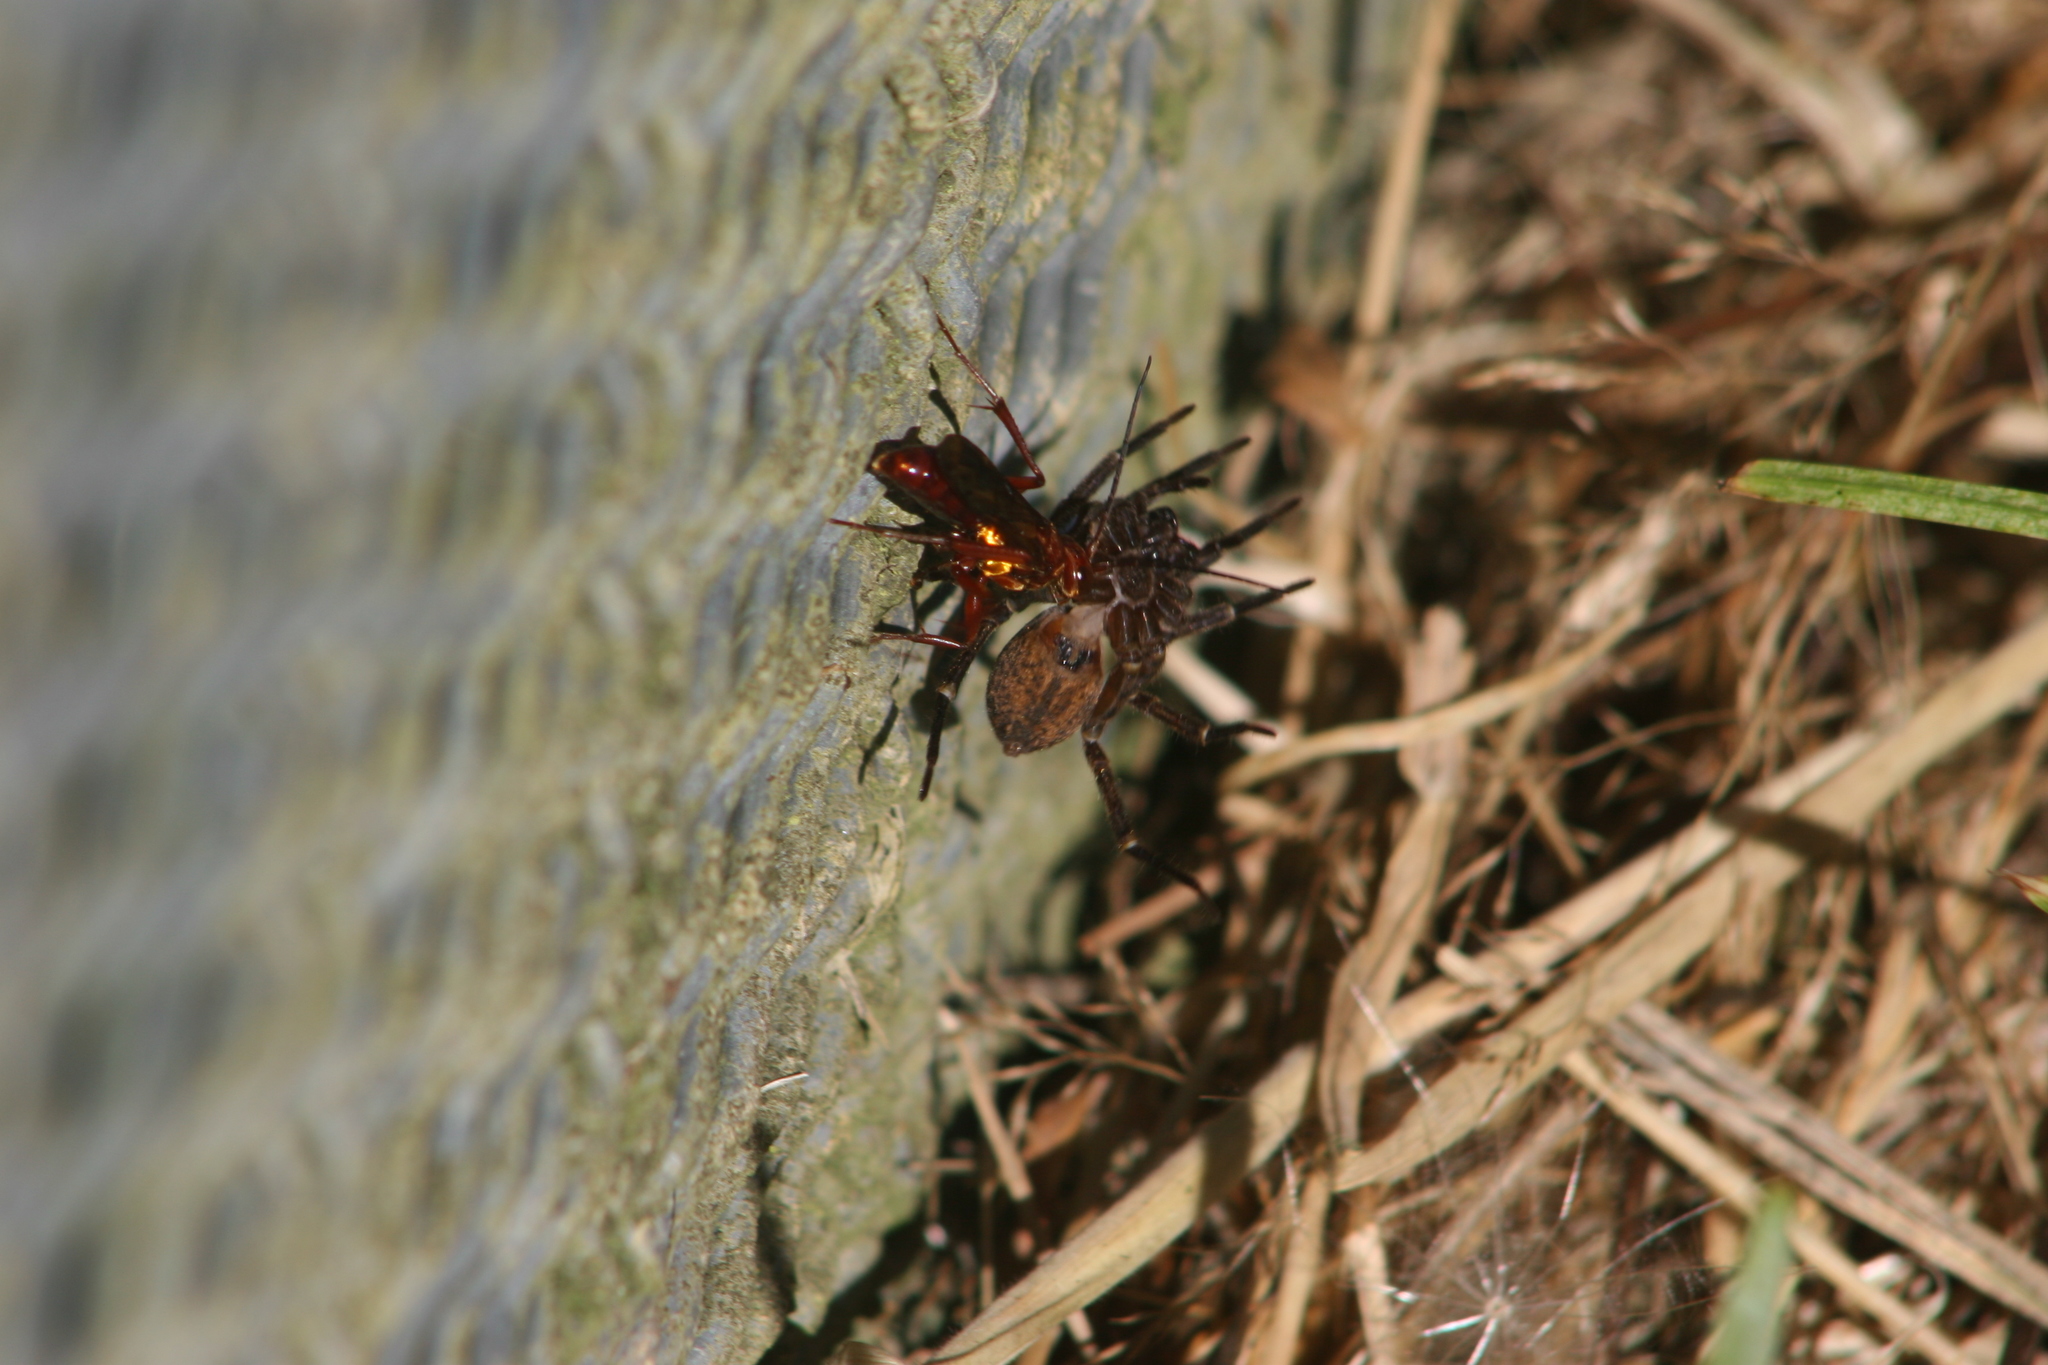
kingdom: Animalia
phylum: Arthropoda
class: Insecta
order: Hymenoptera
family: Pompilidae
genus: Sphictostethus
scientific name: Sphictostethus nitidus
